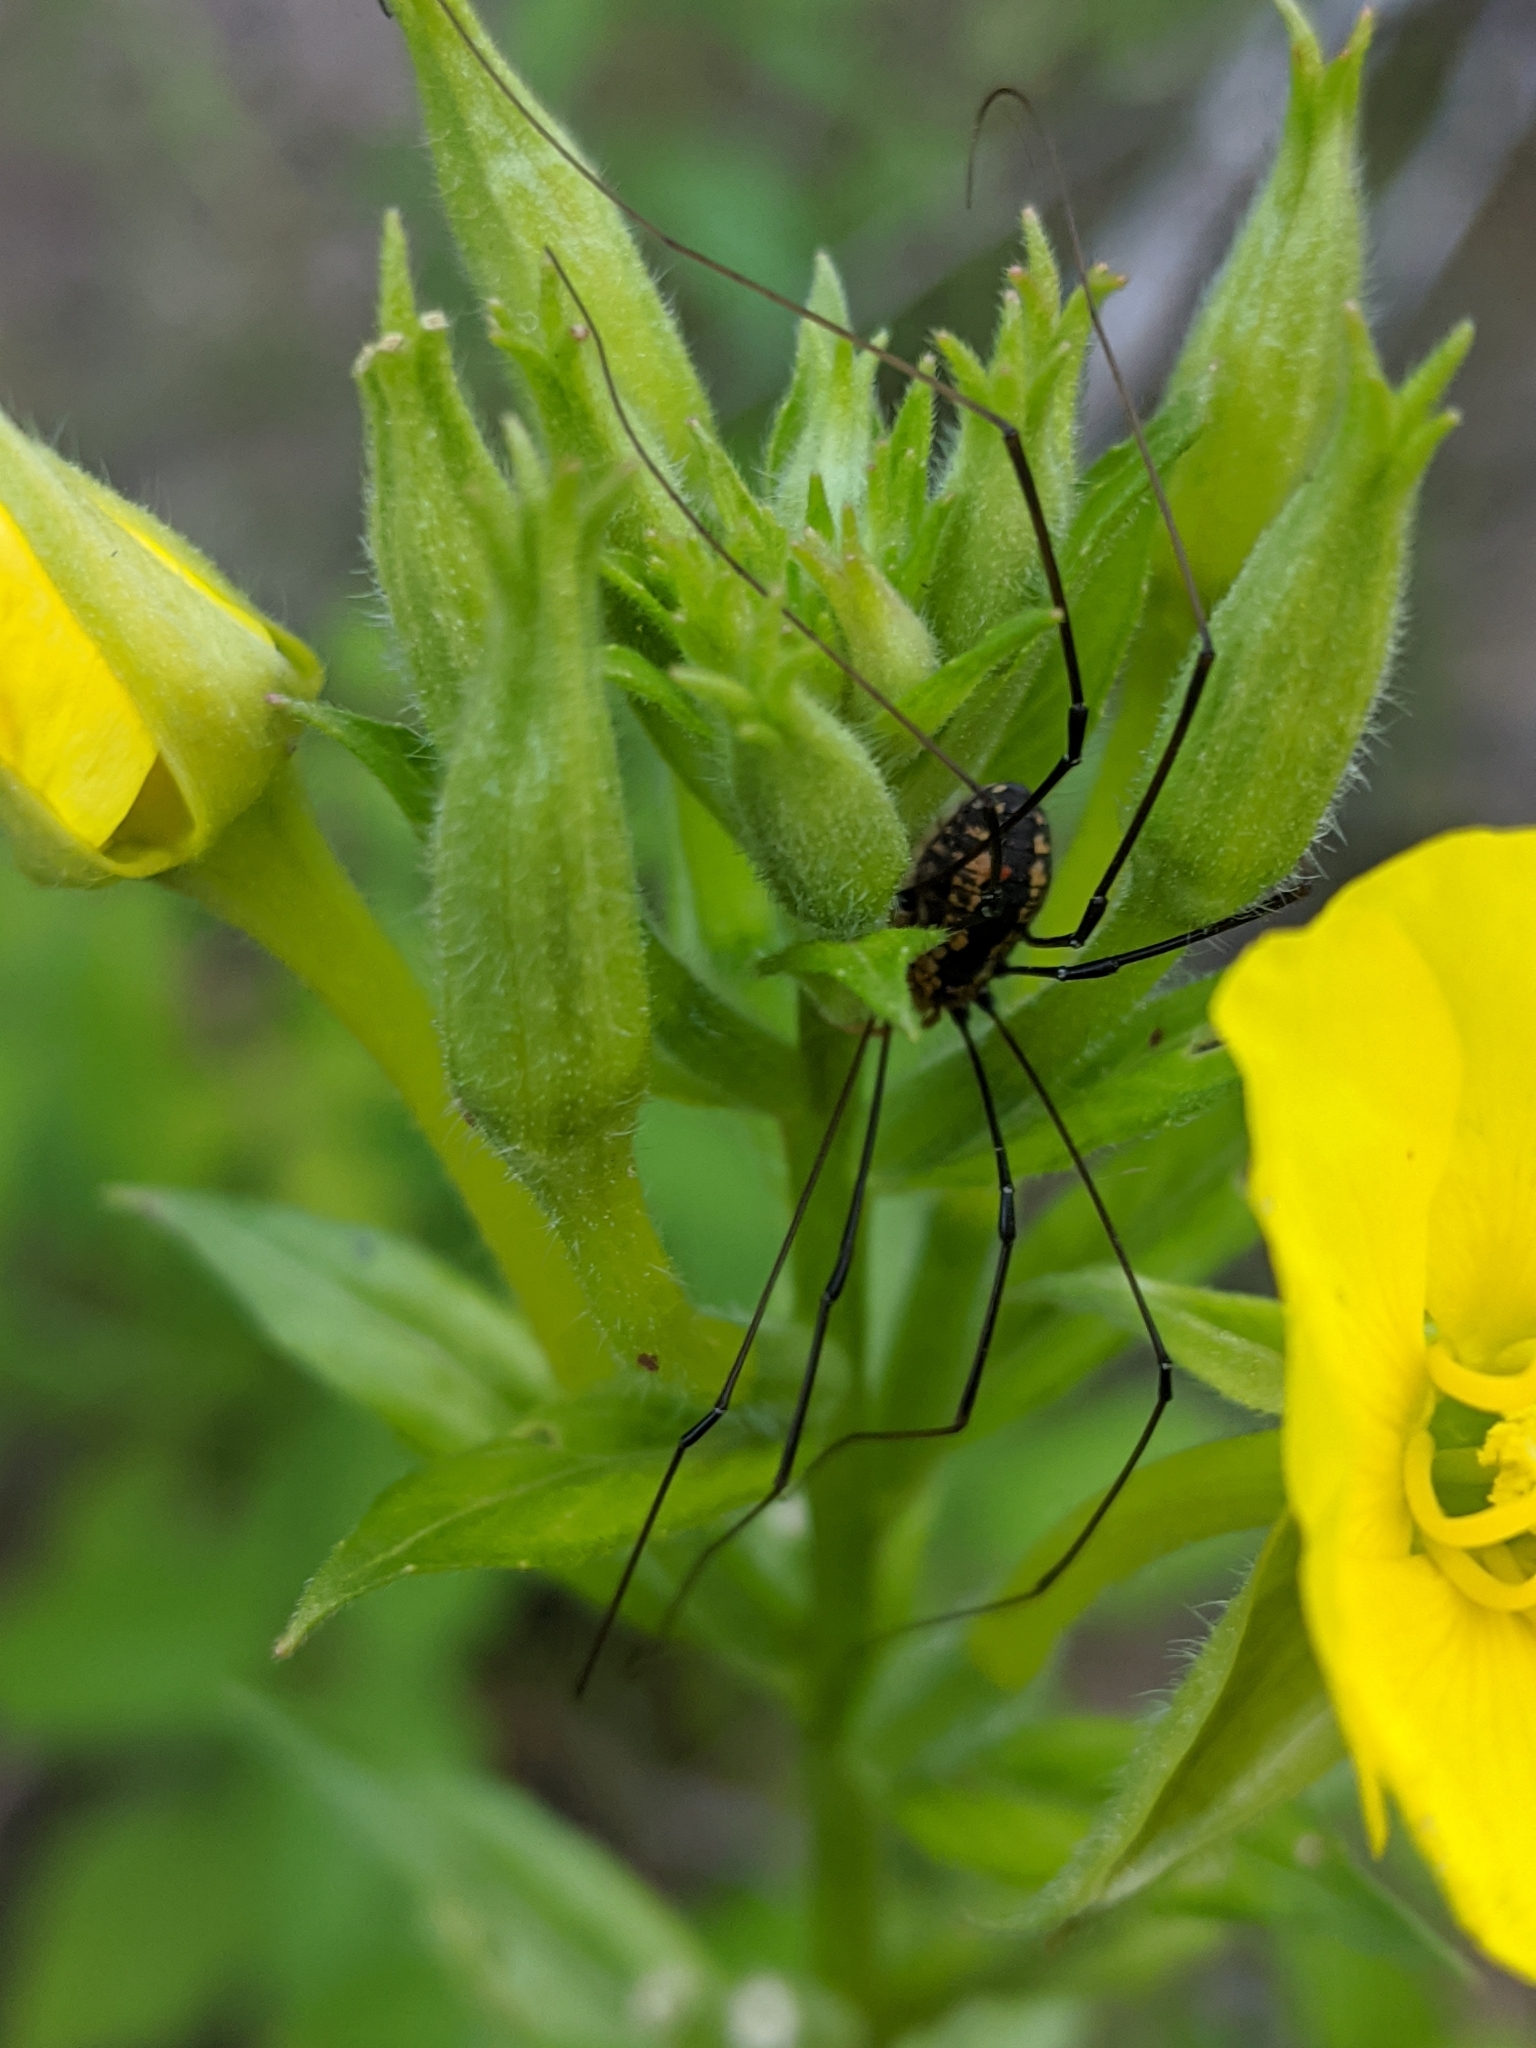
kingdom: Animalia
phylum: Arthropoda
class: Arachnida
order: Opiliones
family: Sclerosomatidae
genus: Leiobunum
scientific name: Leiobunum vittatum
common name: Eastern harvestman
